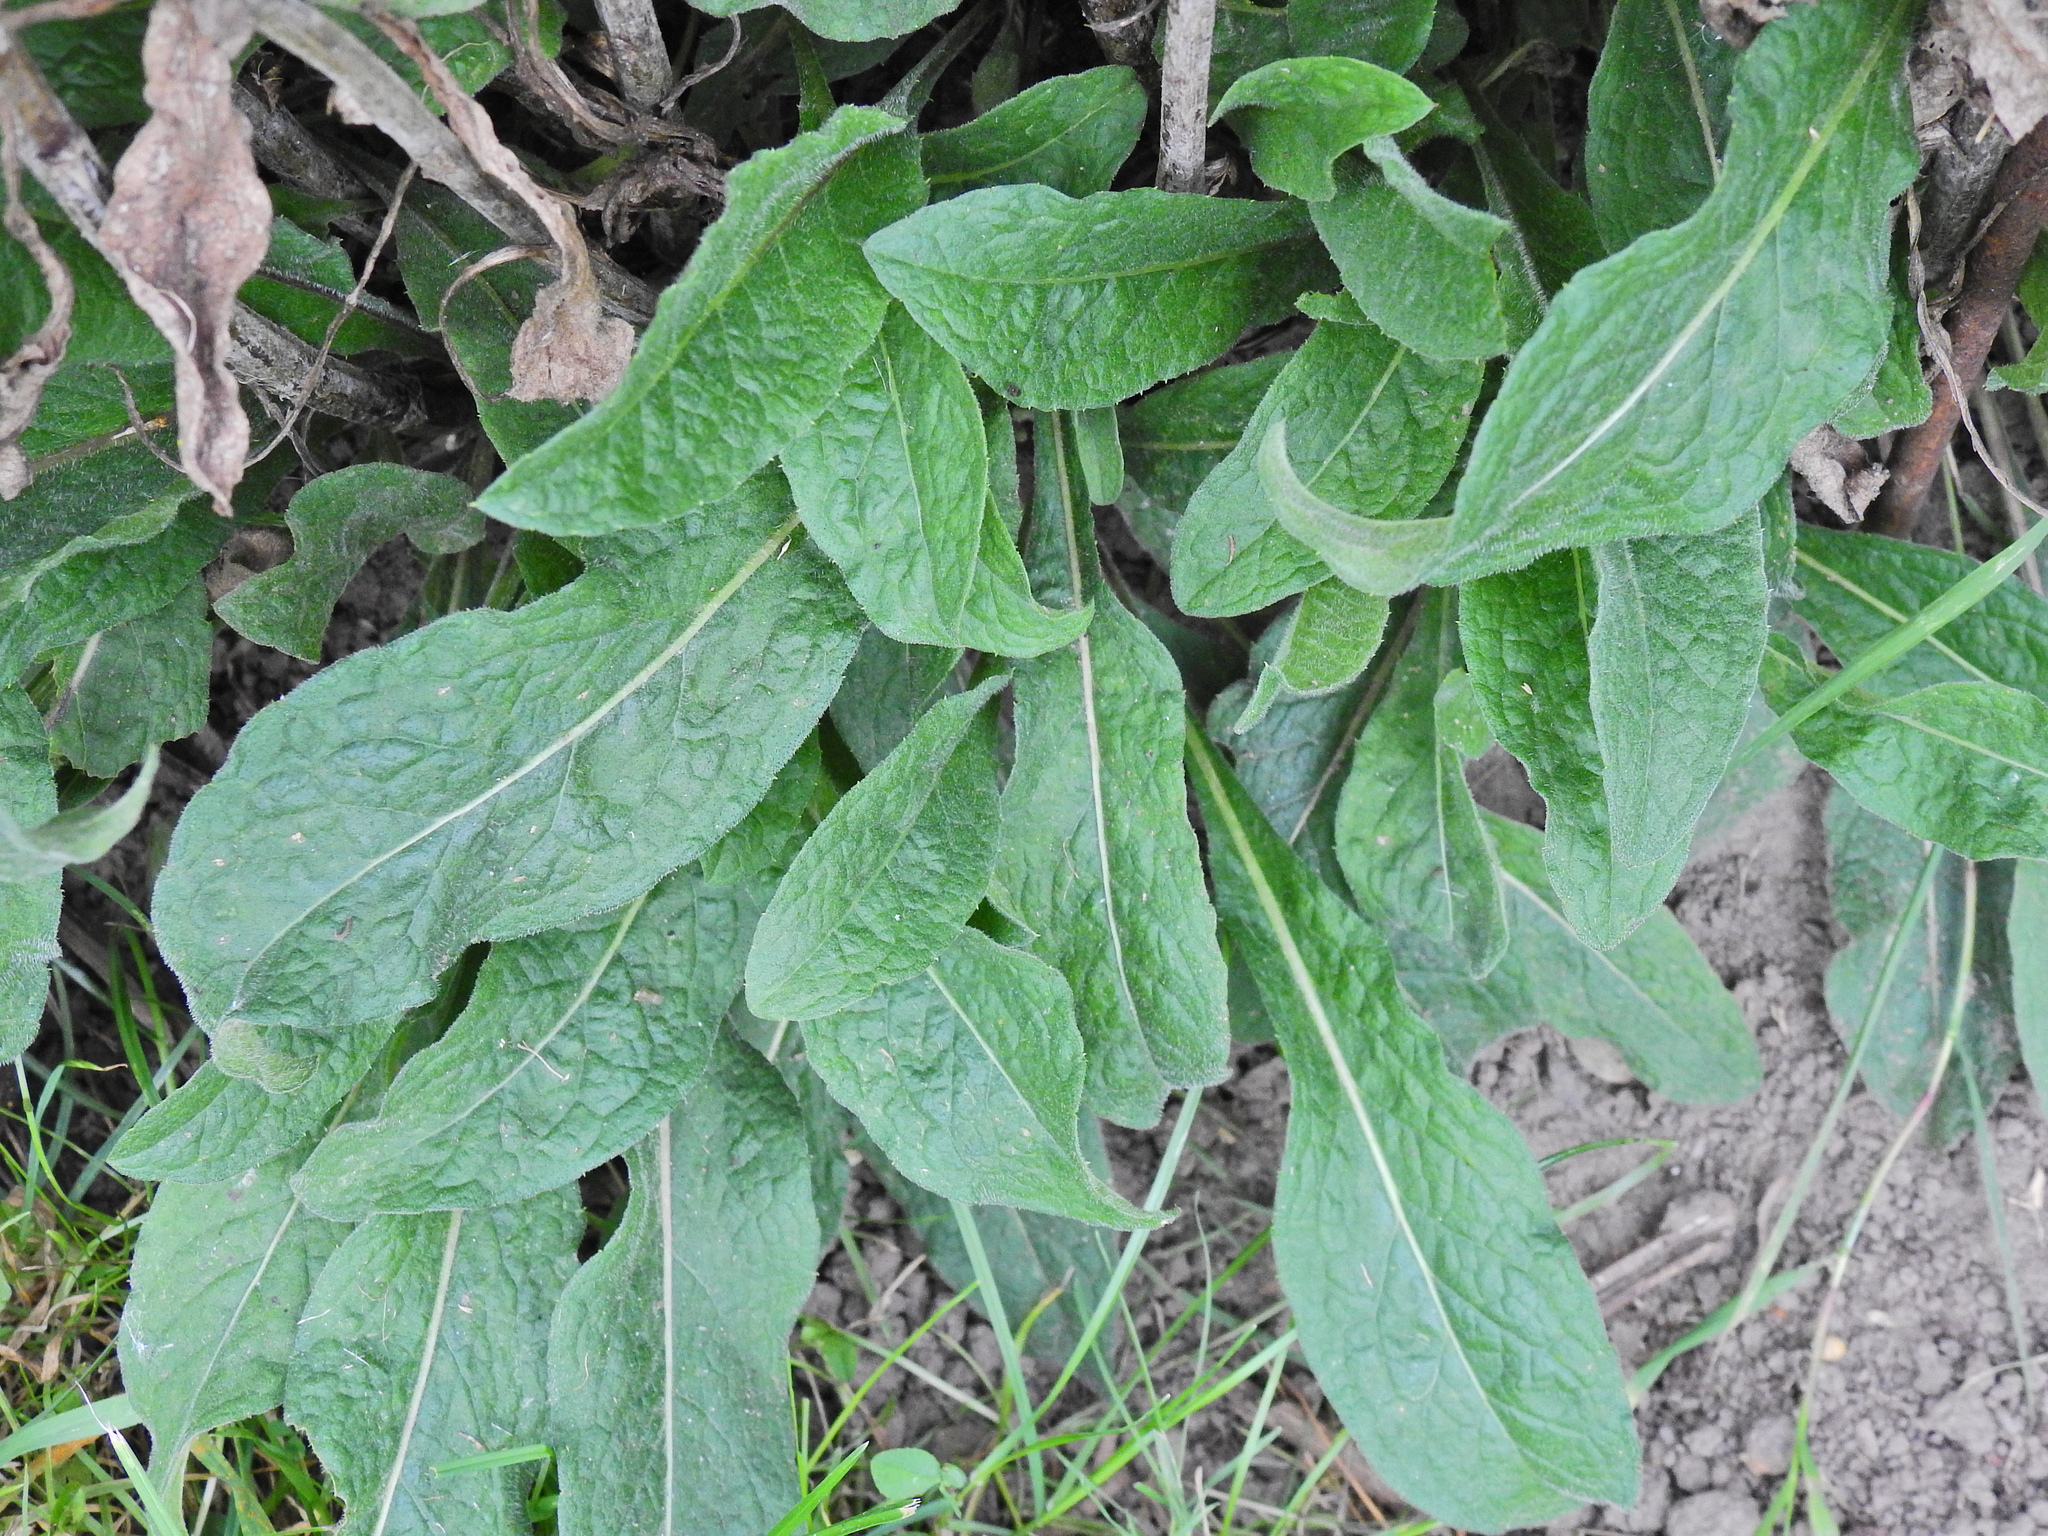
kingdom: Plantae
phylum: Tracheophyta
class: Magnoliopsida
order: Asterales
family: Asteraceae
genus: Centaurea
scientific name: Centaurea nigra
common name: Lesser knapweed
